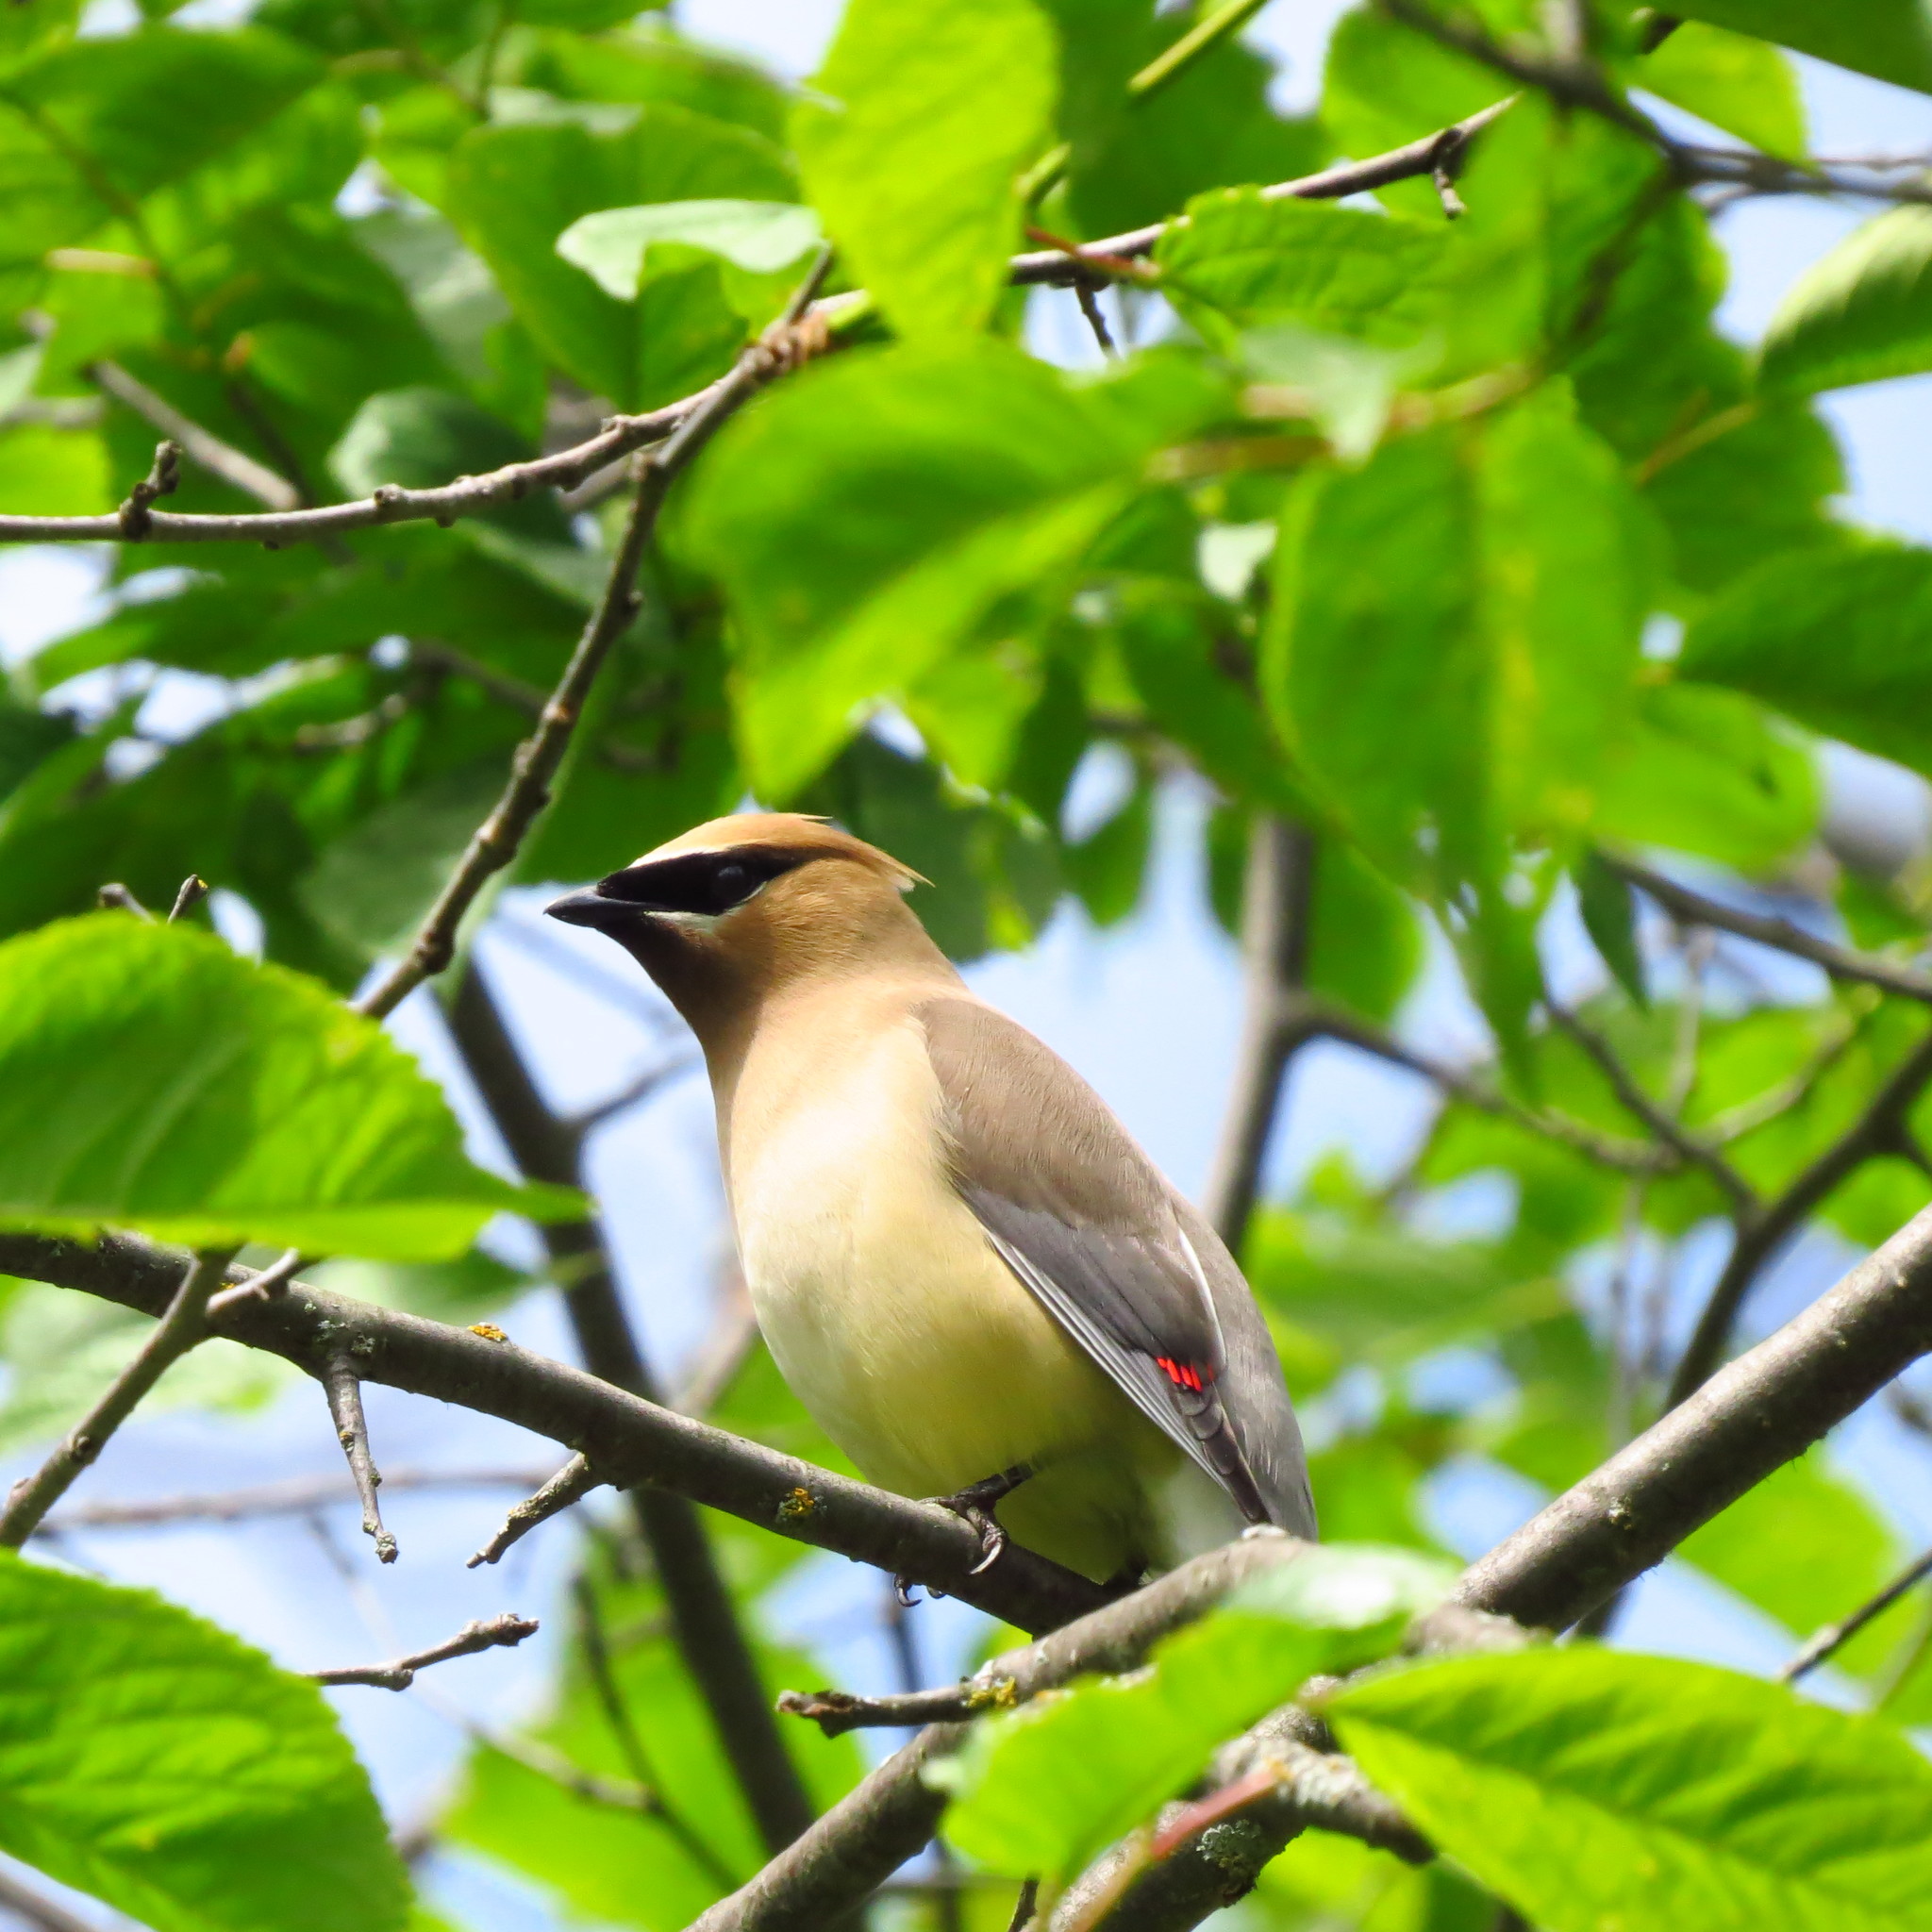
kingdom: Animalia
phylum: Chordata
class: Aves
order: Passeriformes
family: Bombycillidae
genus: Bombycilla
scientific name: Bombycilla cedrorum
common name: Cedar waxwing
